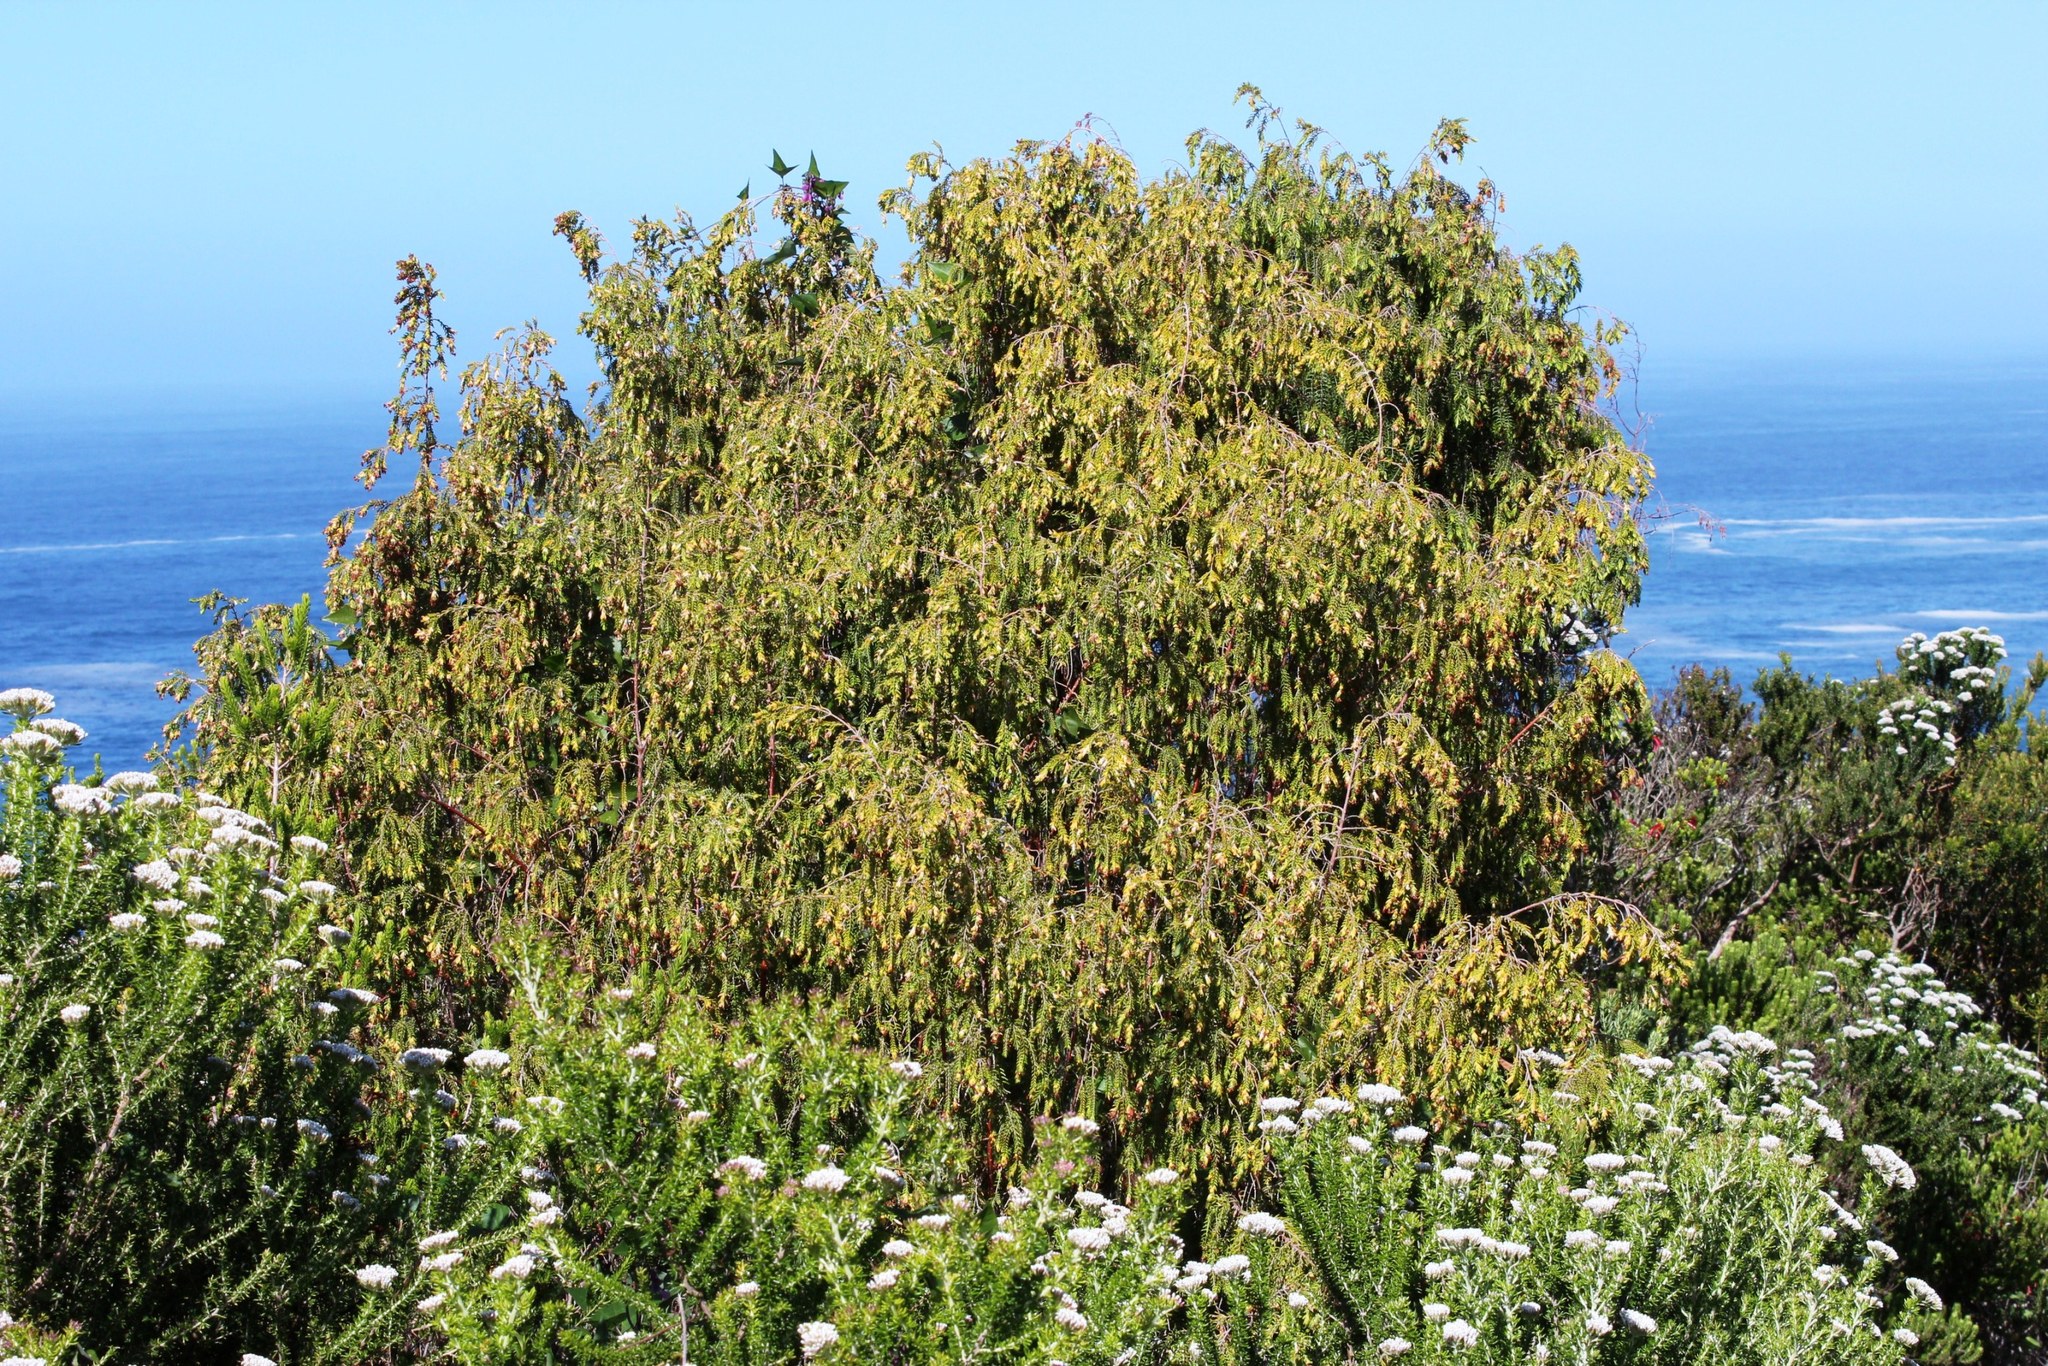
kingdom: Plantae
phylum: Tracheophyta
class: Magnoliopsida
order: Malvales
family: Thymelaeaceae
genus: Passerina
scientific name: Passerina falcifolia
